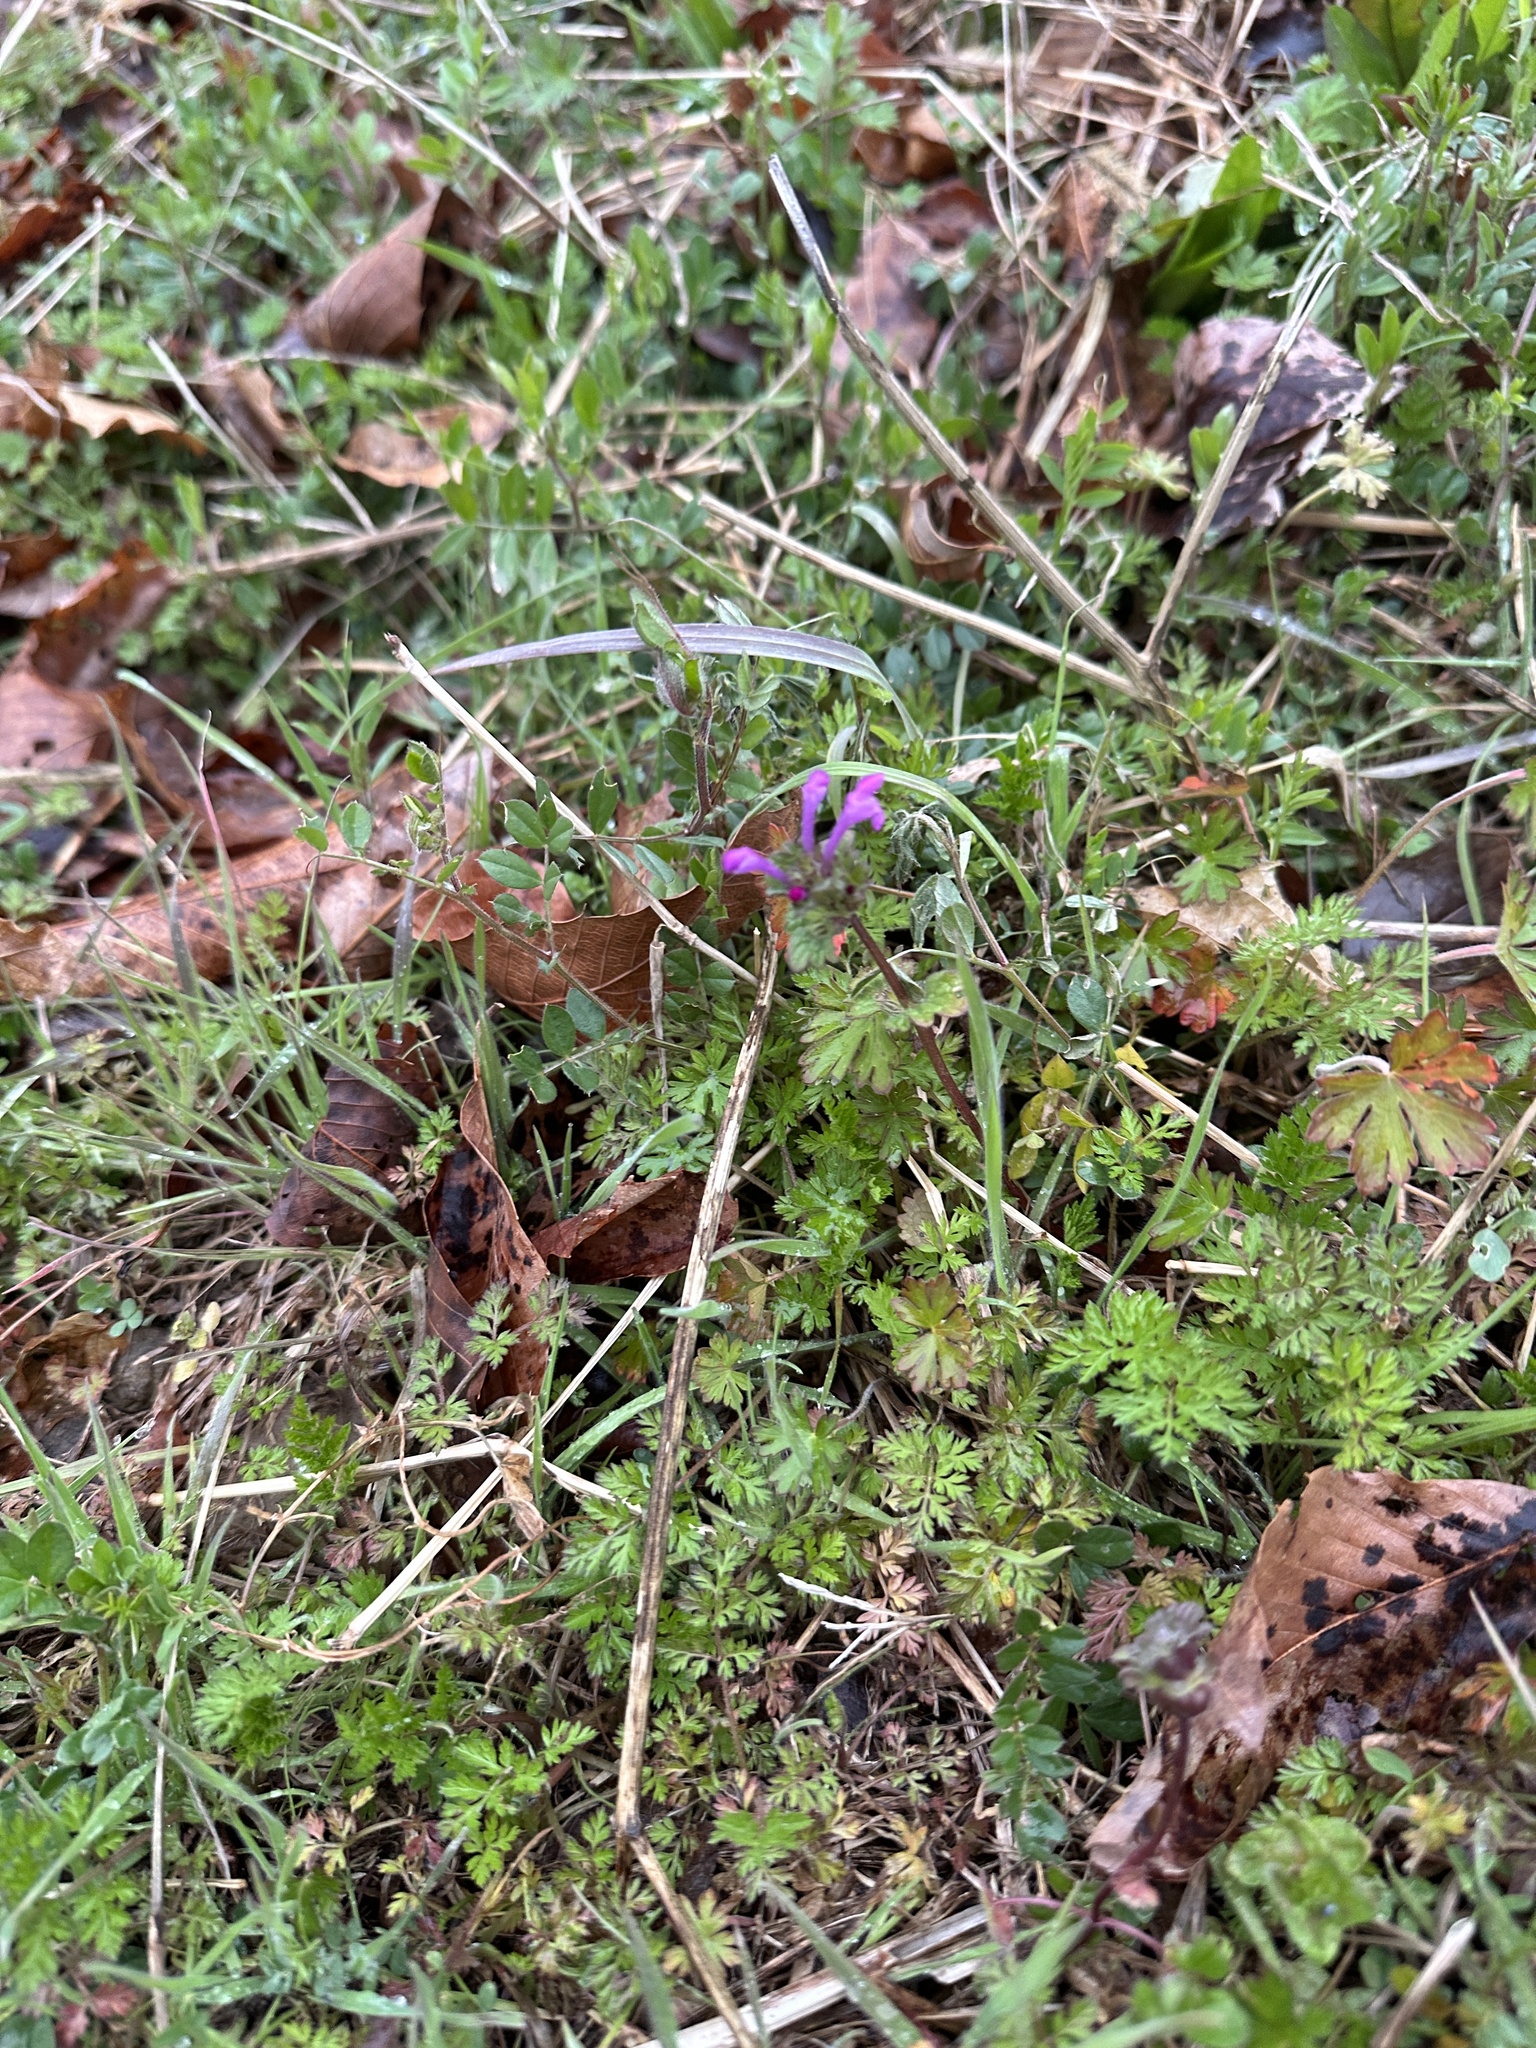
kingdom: Plantae
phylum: Tracheophyta
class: Magnoliopsida
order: Lamiales
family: Lamiaceae
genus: Lamium
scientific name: Lamium amplexicaule
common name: Henbit dead-nettle
